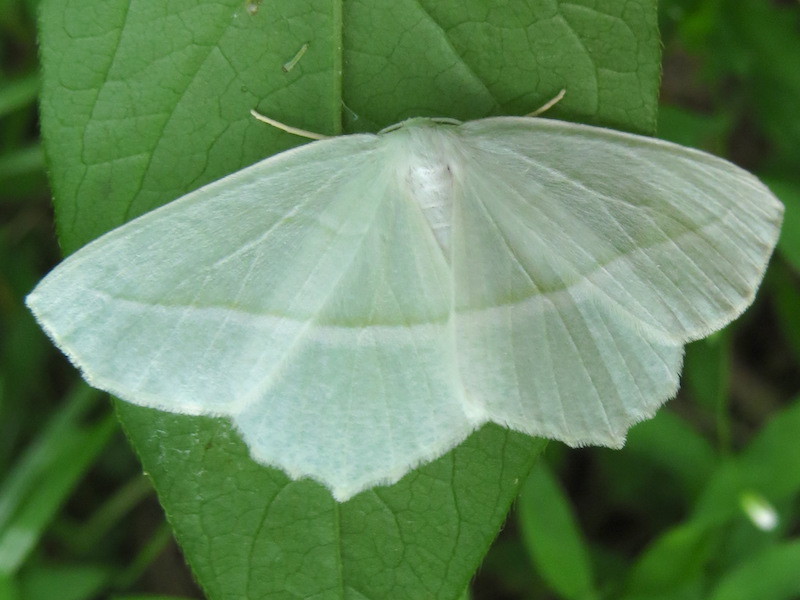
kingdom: Animalia
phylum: Arthropoda
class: Insecta
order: Lepidoptera
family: Geometridae
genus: Campaea
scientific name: Campaea perlata
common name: Fringed looper
